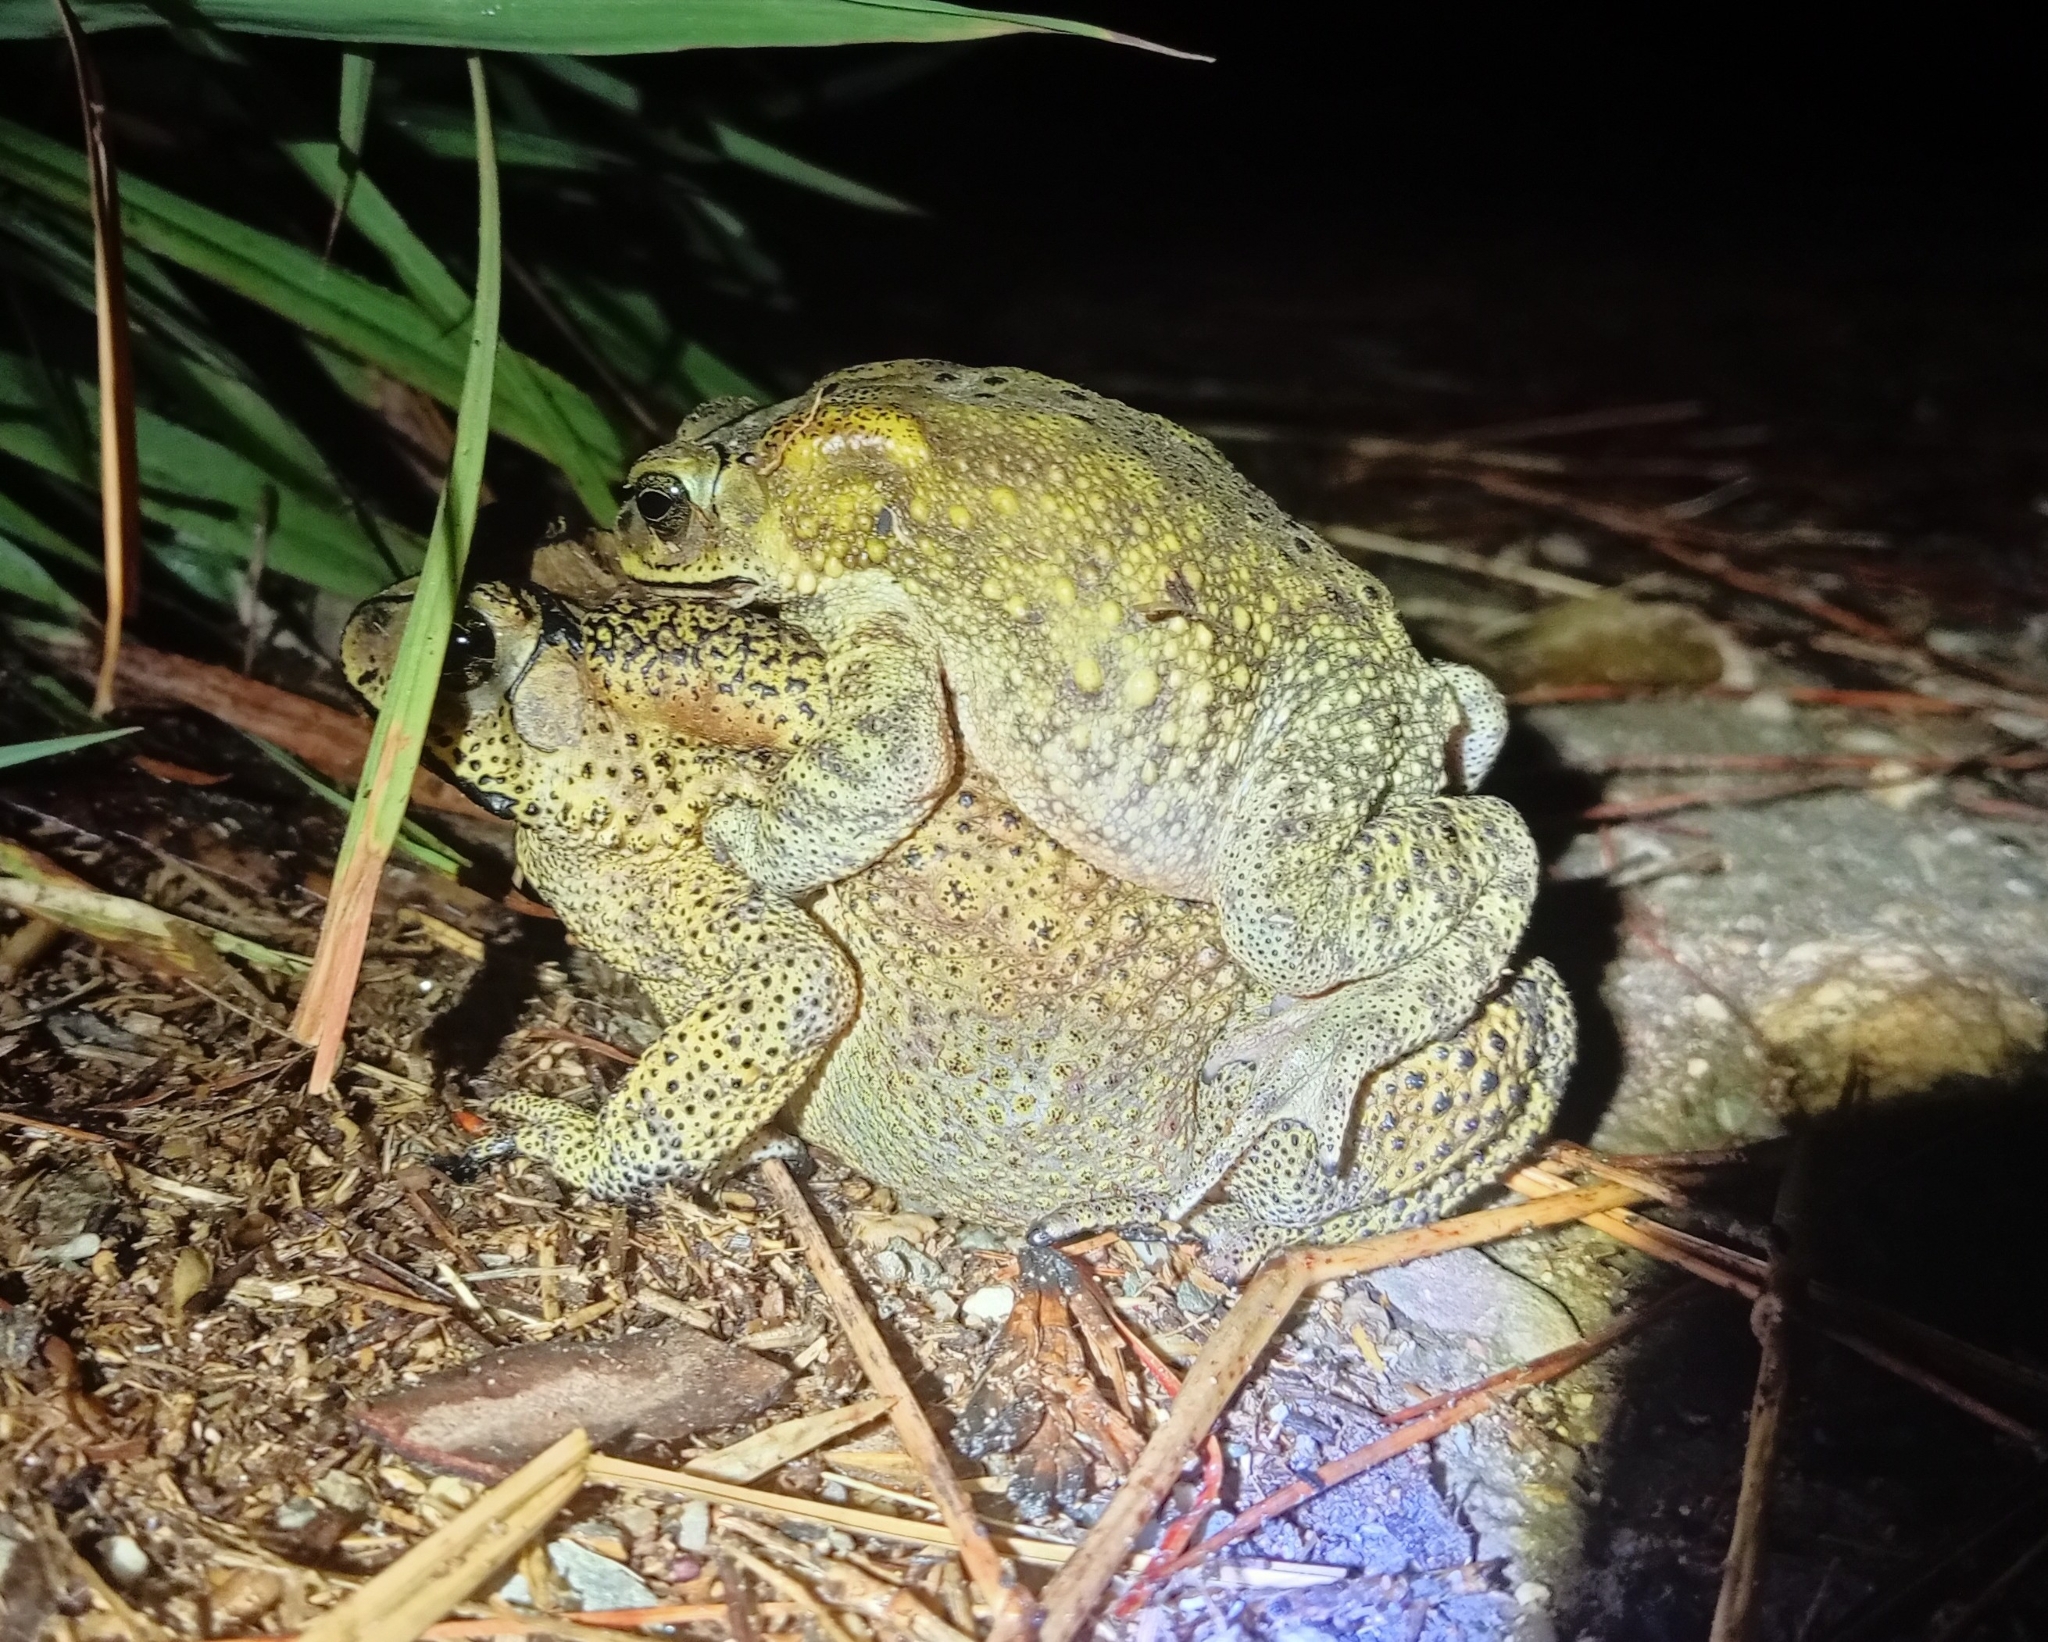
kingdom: Animalia
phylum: Chordata
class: Amphibia
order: Anura
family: Bufonidae
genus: Duttaphrynus
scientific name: Duttaphrynus melanostictus
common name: Common sunda toad
